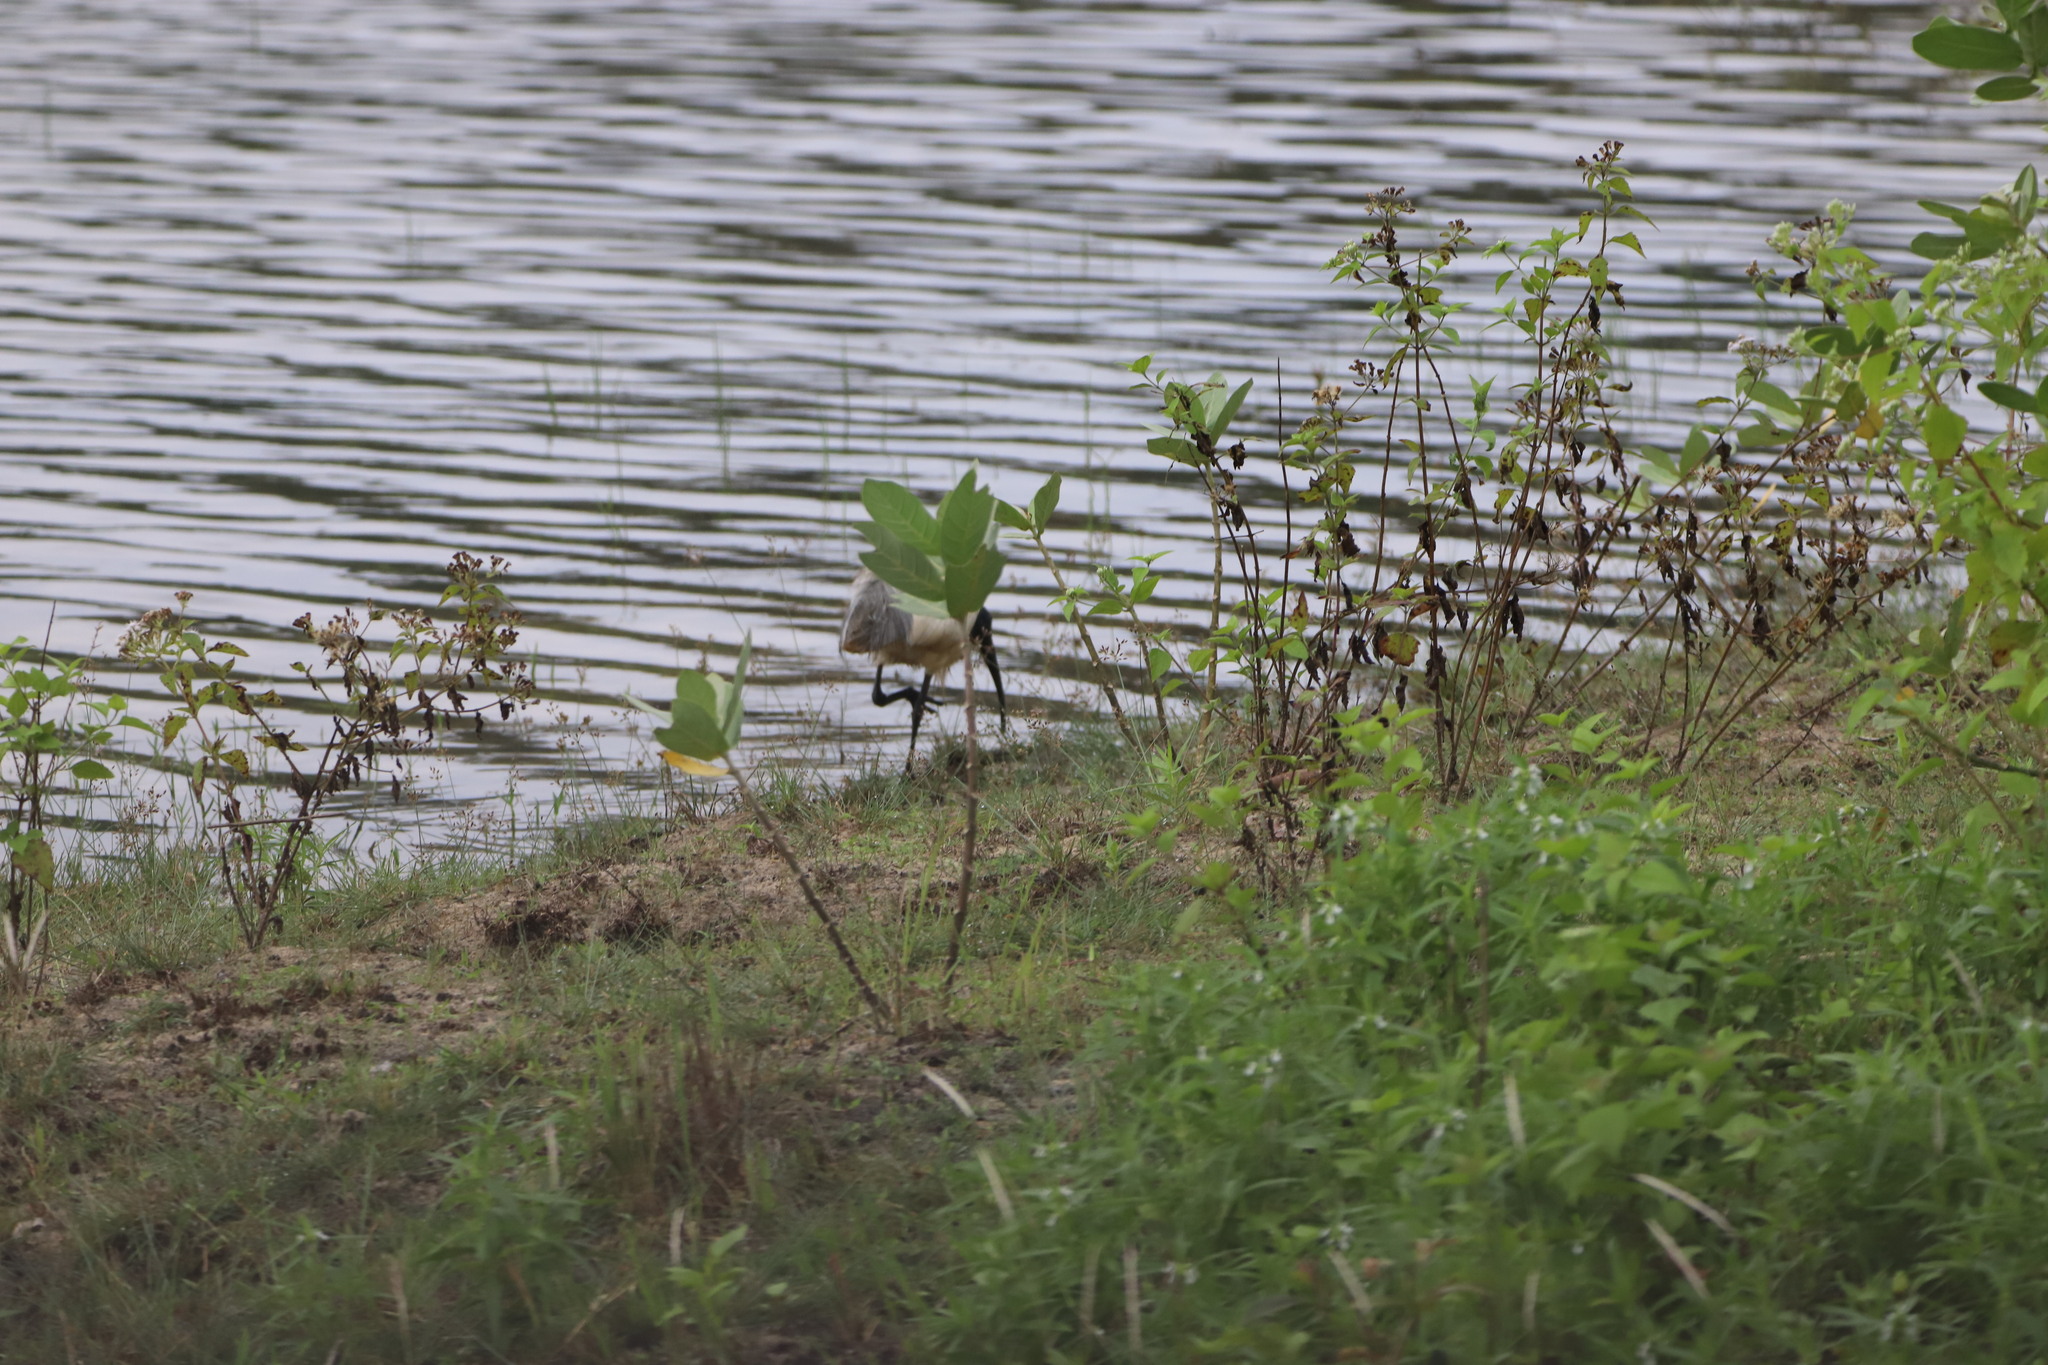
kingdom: Animalia
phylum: Chordata
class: Aves
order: Pelecaniformes
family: Threskiornithidae
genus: Threskiornis
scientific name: Threskiornis melanocephalus
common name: Black-headed ibis
